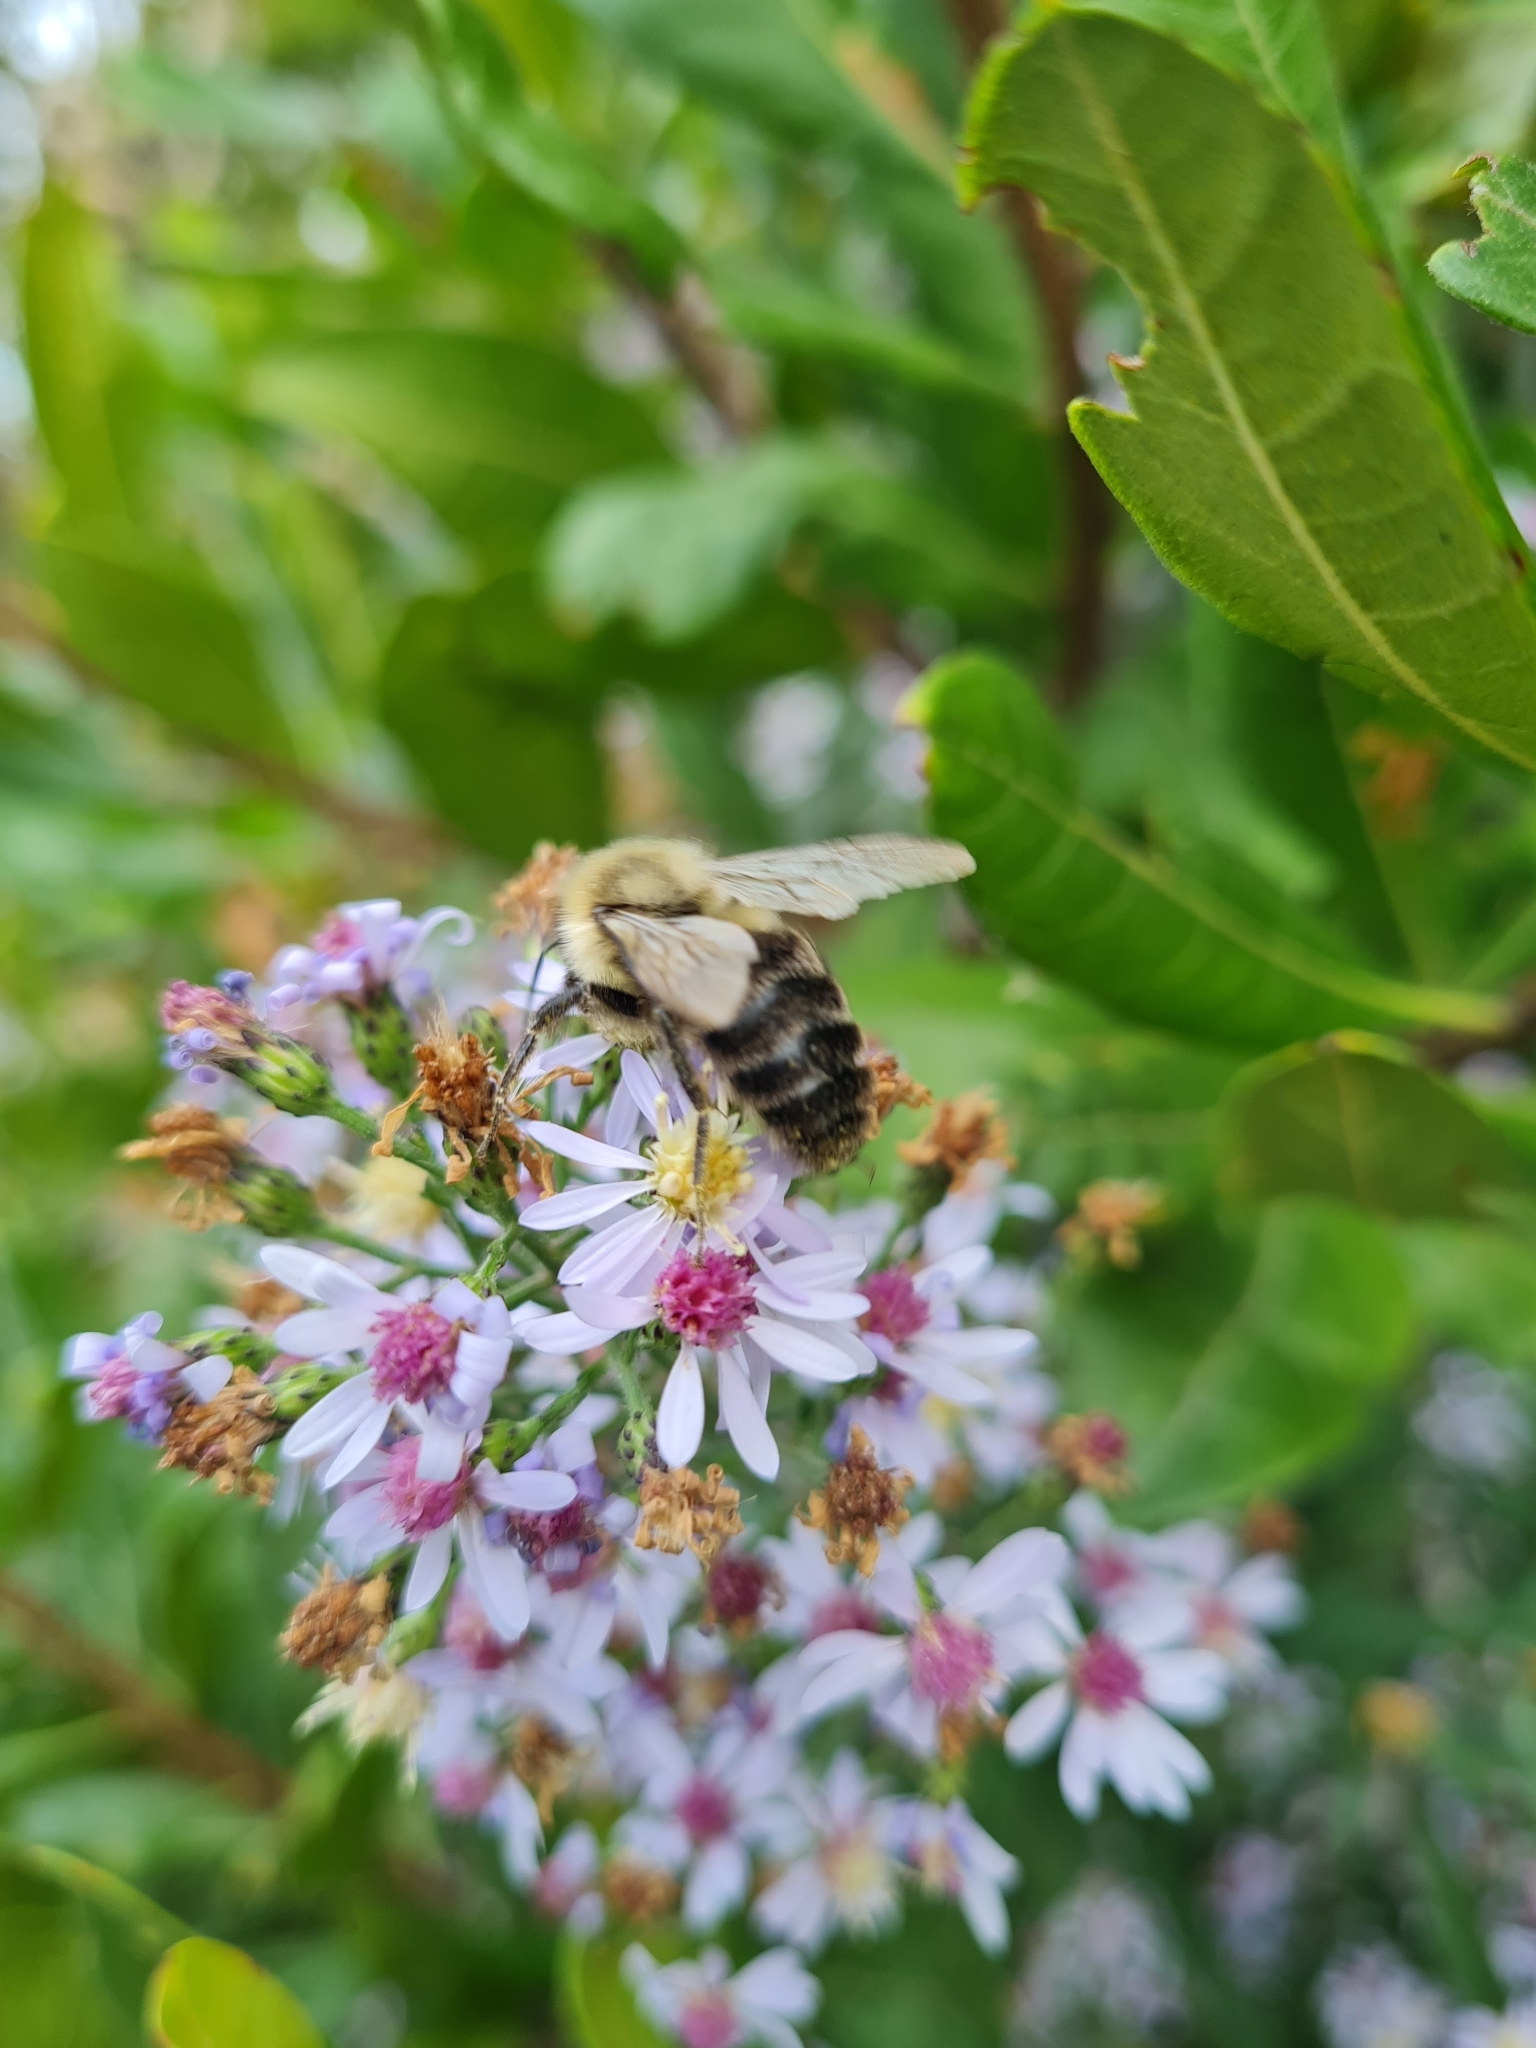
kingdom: Animalia
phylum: Arthropoda
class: Insecta
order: Hymenoptera
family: Apidae
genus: Bombus
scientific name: Bombus impatiens
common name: Common eastern bumble bee
